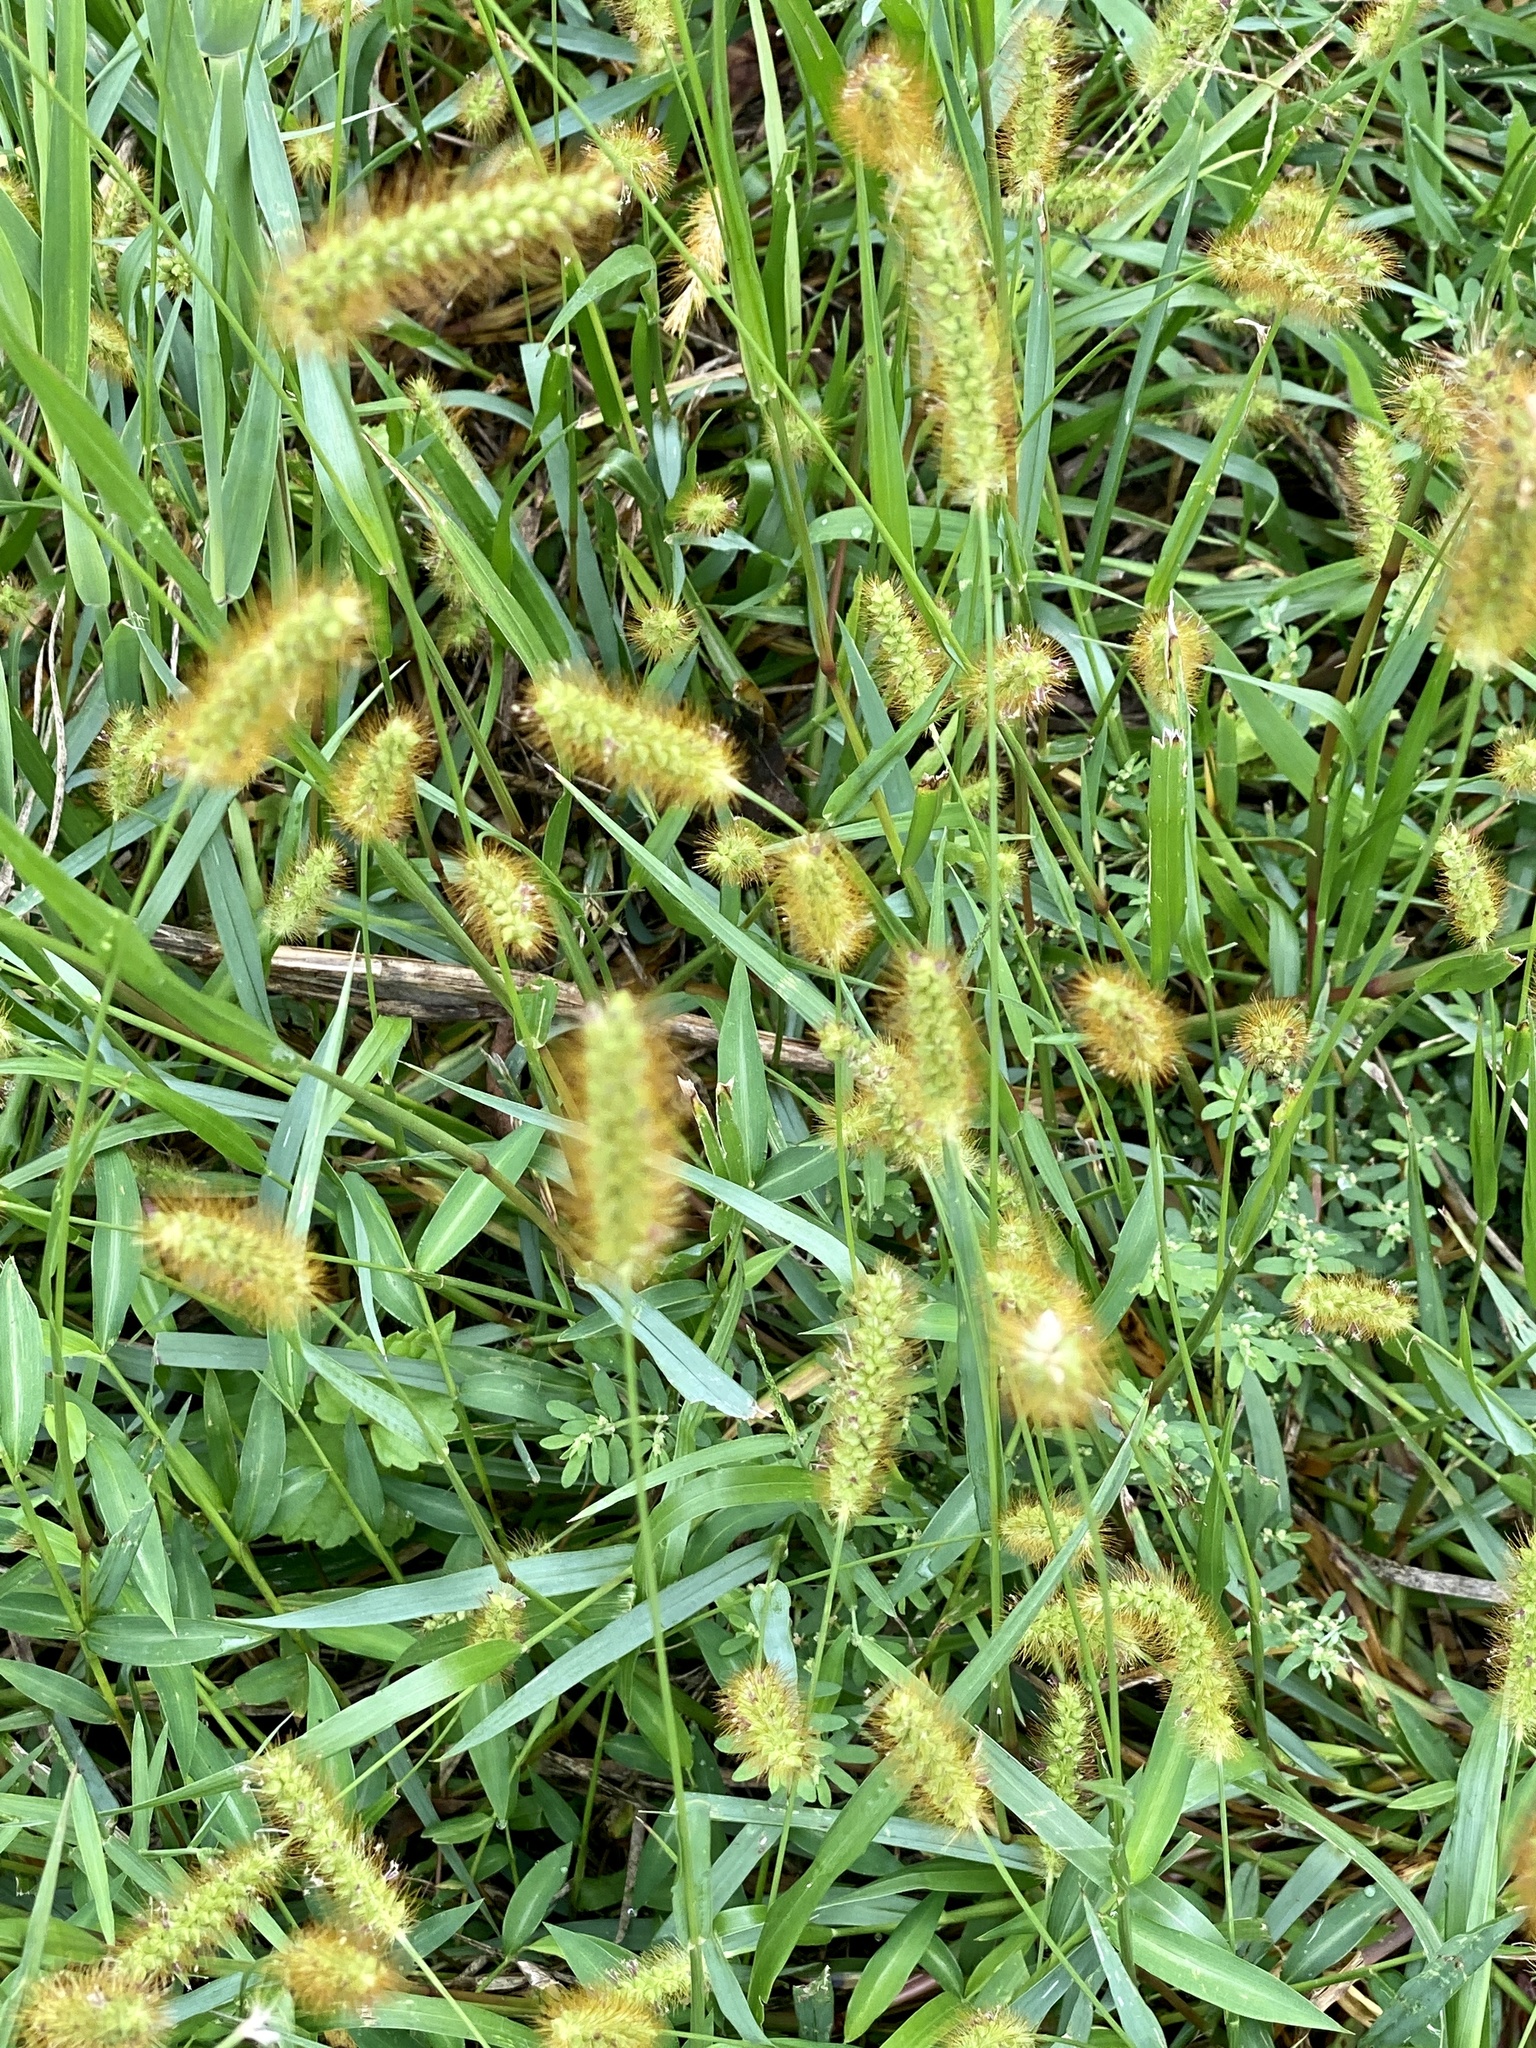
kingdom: Plantae
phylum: Tracheophyta
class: Liliopsida
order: Poales
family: Poaceae
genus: Setaria
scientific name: Setaria pumila
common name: Yellow bristle-grass
